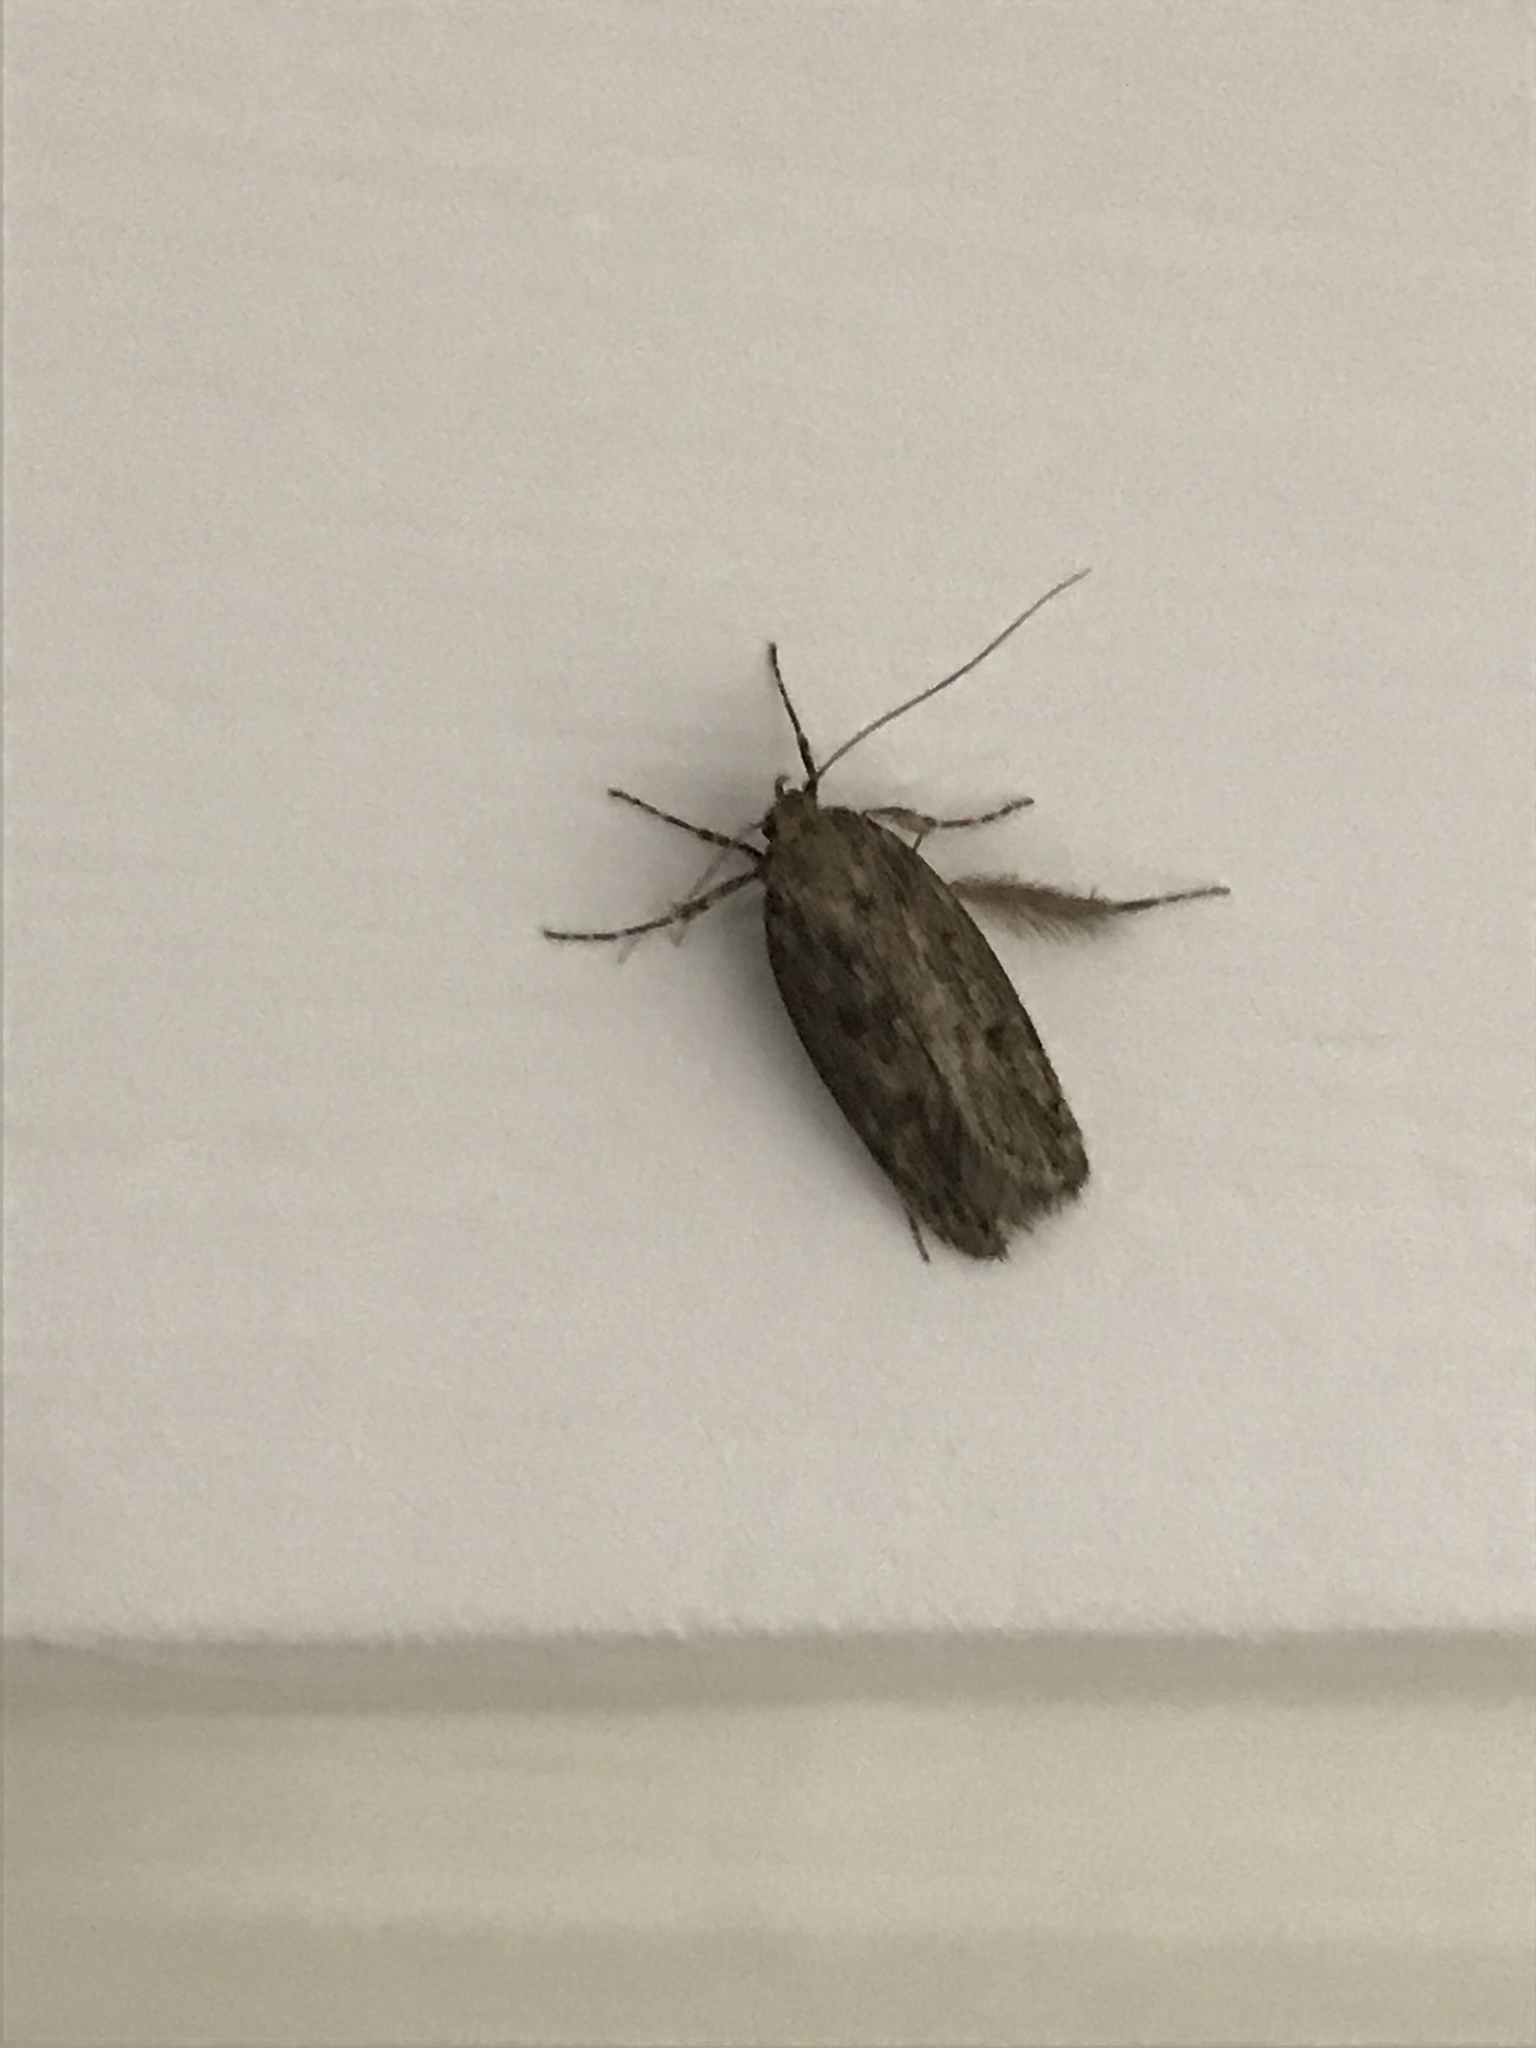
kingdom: Animalia
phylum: Arthropoda
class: Insecta
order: Lepidoptera
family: Oecophoridae
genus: Hofmannophila
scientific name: Hofmannophila pseudospretella
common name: Brown house moth
